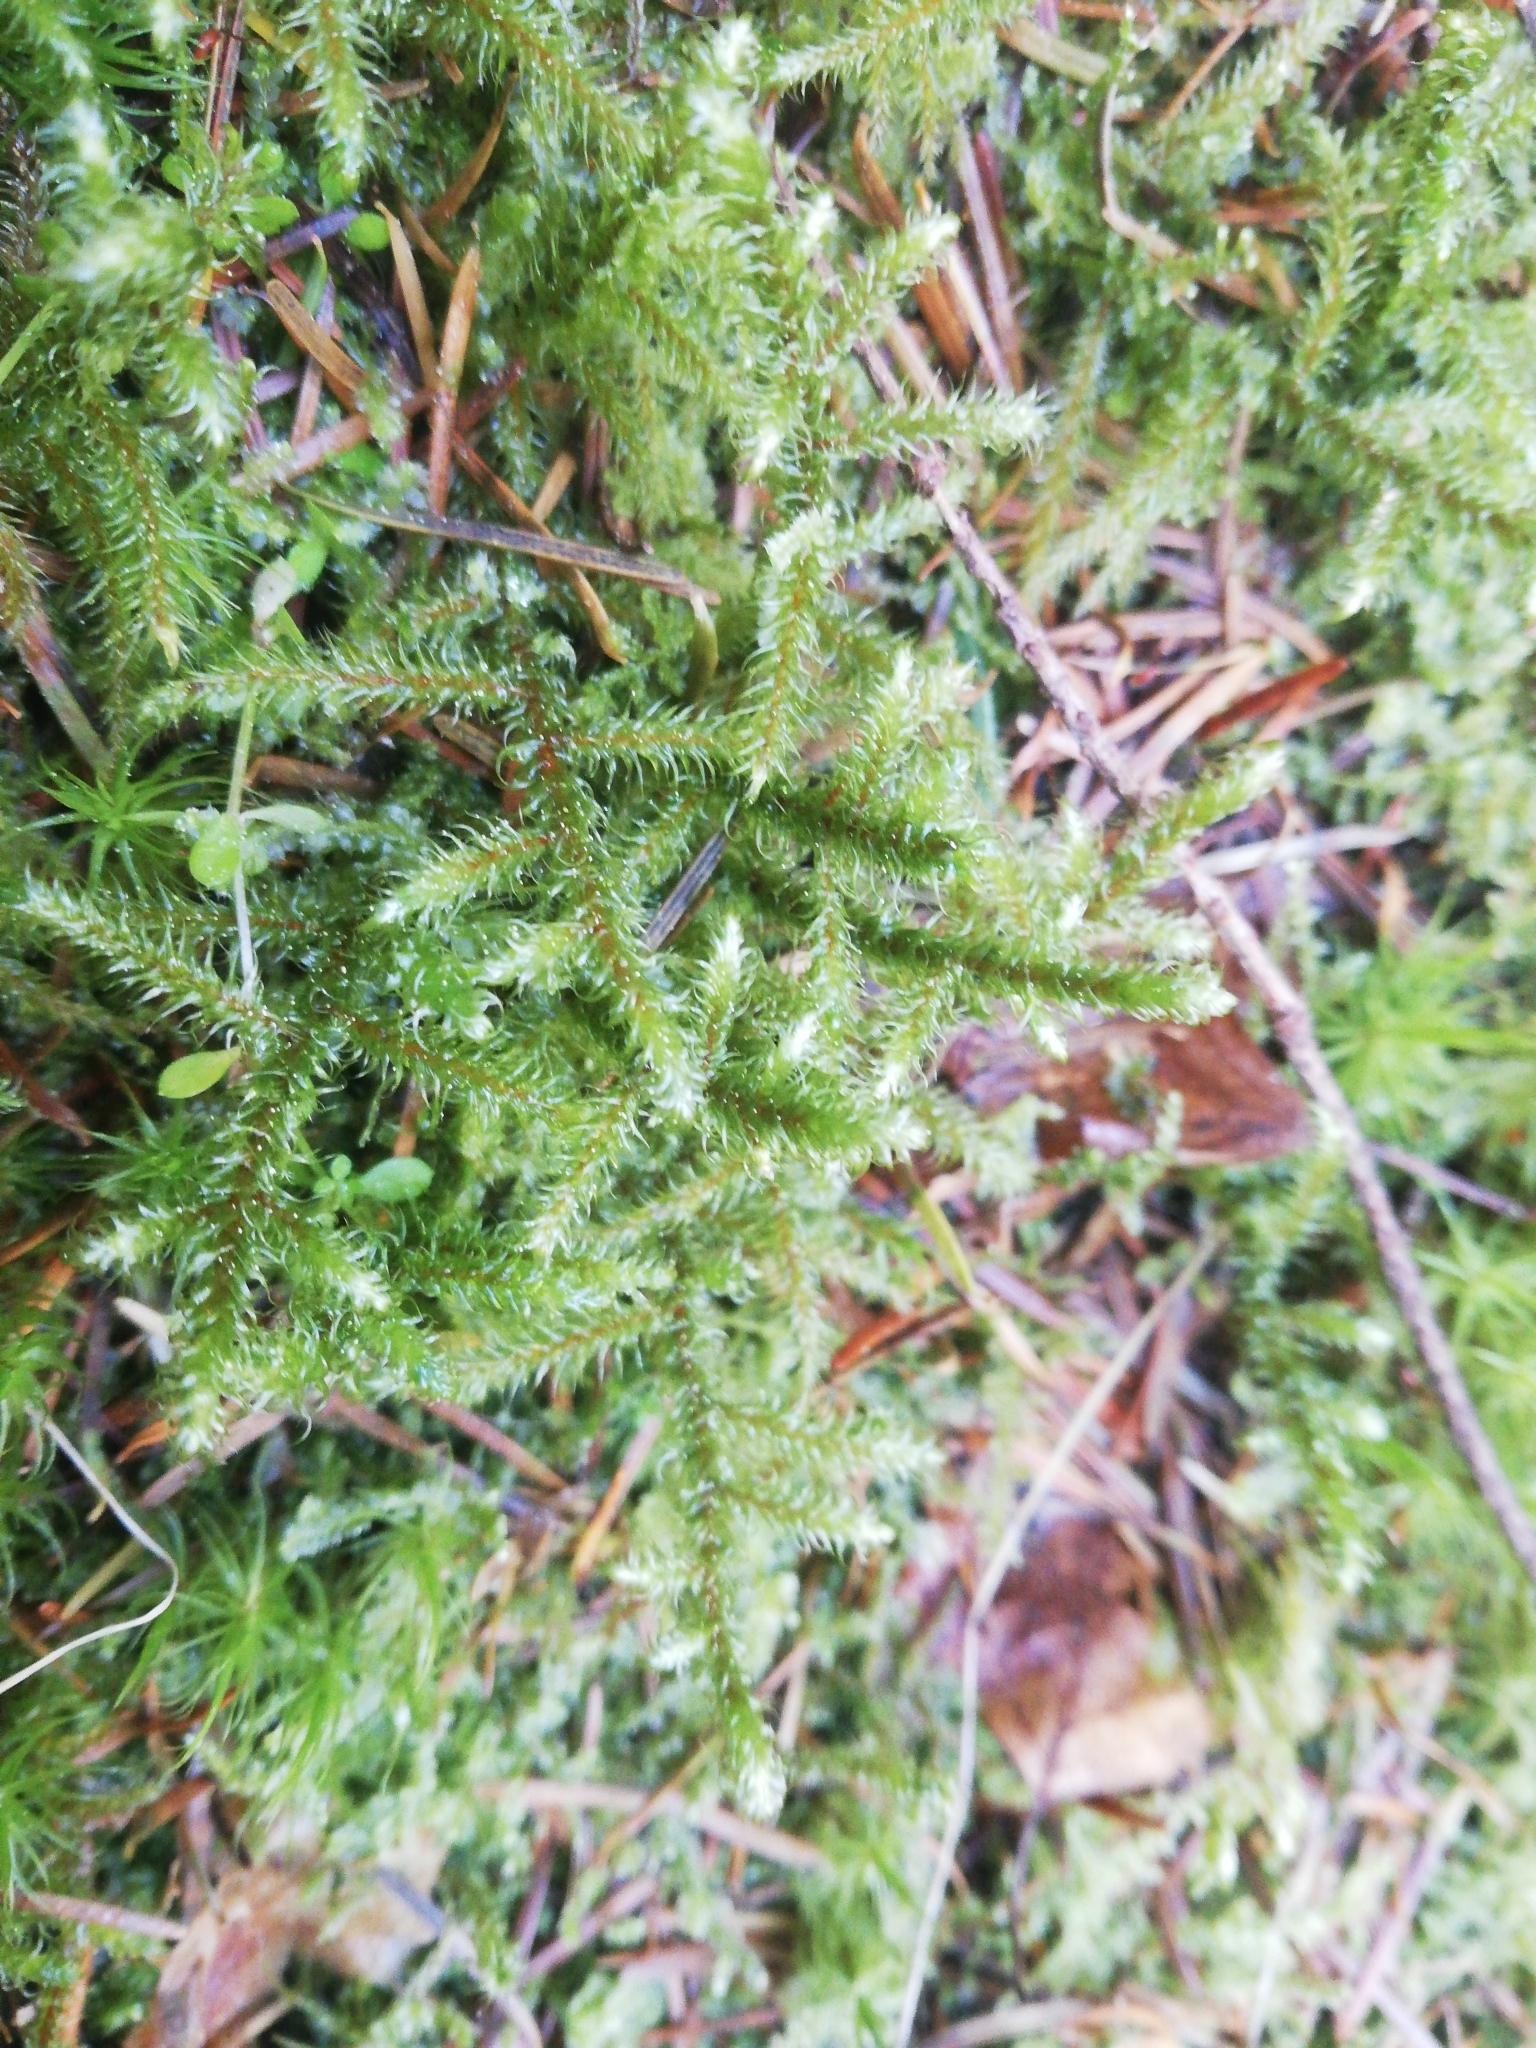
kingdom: Plantae
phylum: Bryophyta
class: Bryopsida
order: Hypnales
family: Hylocomiaceae
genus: Rhytidiadelphus
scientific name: Rhytidiadelphus loreus
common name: Lanky moss
